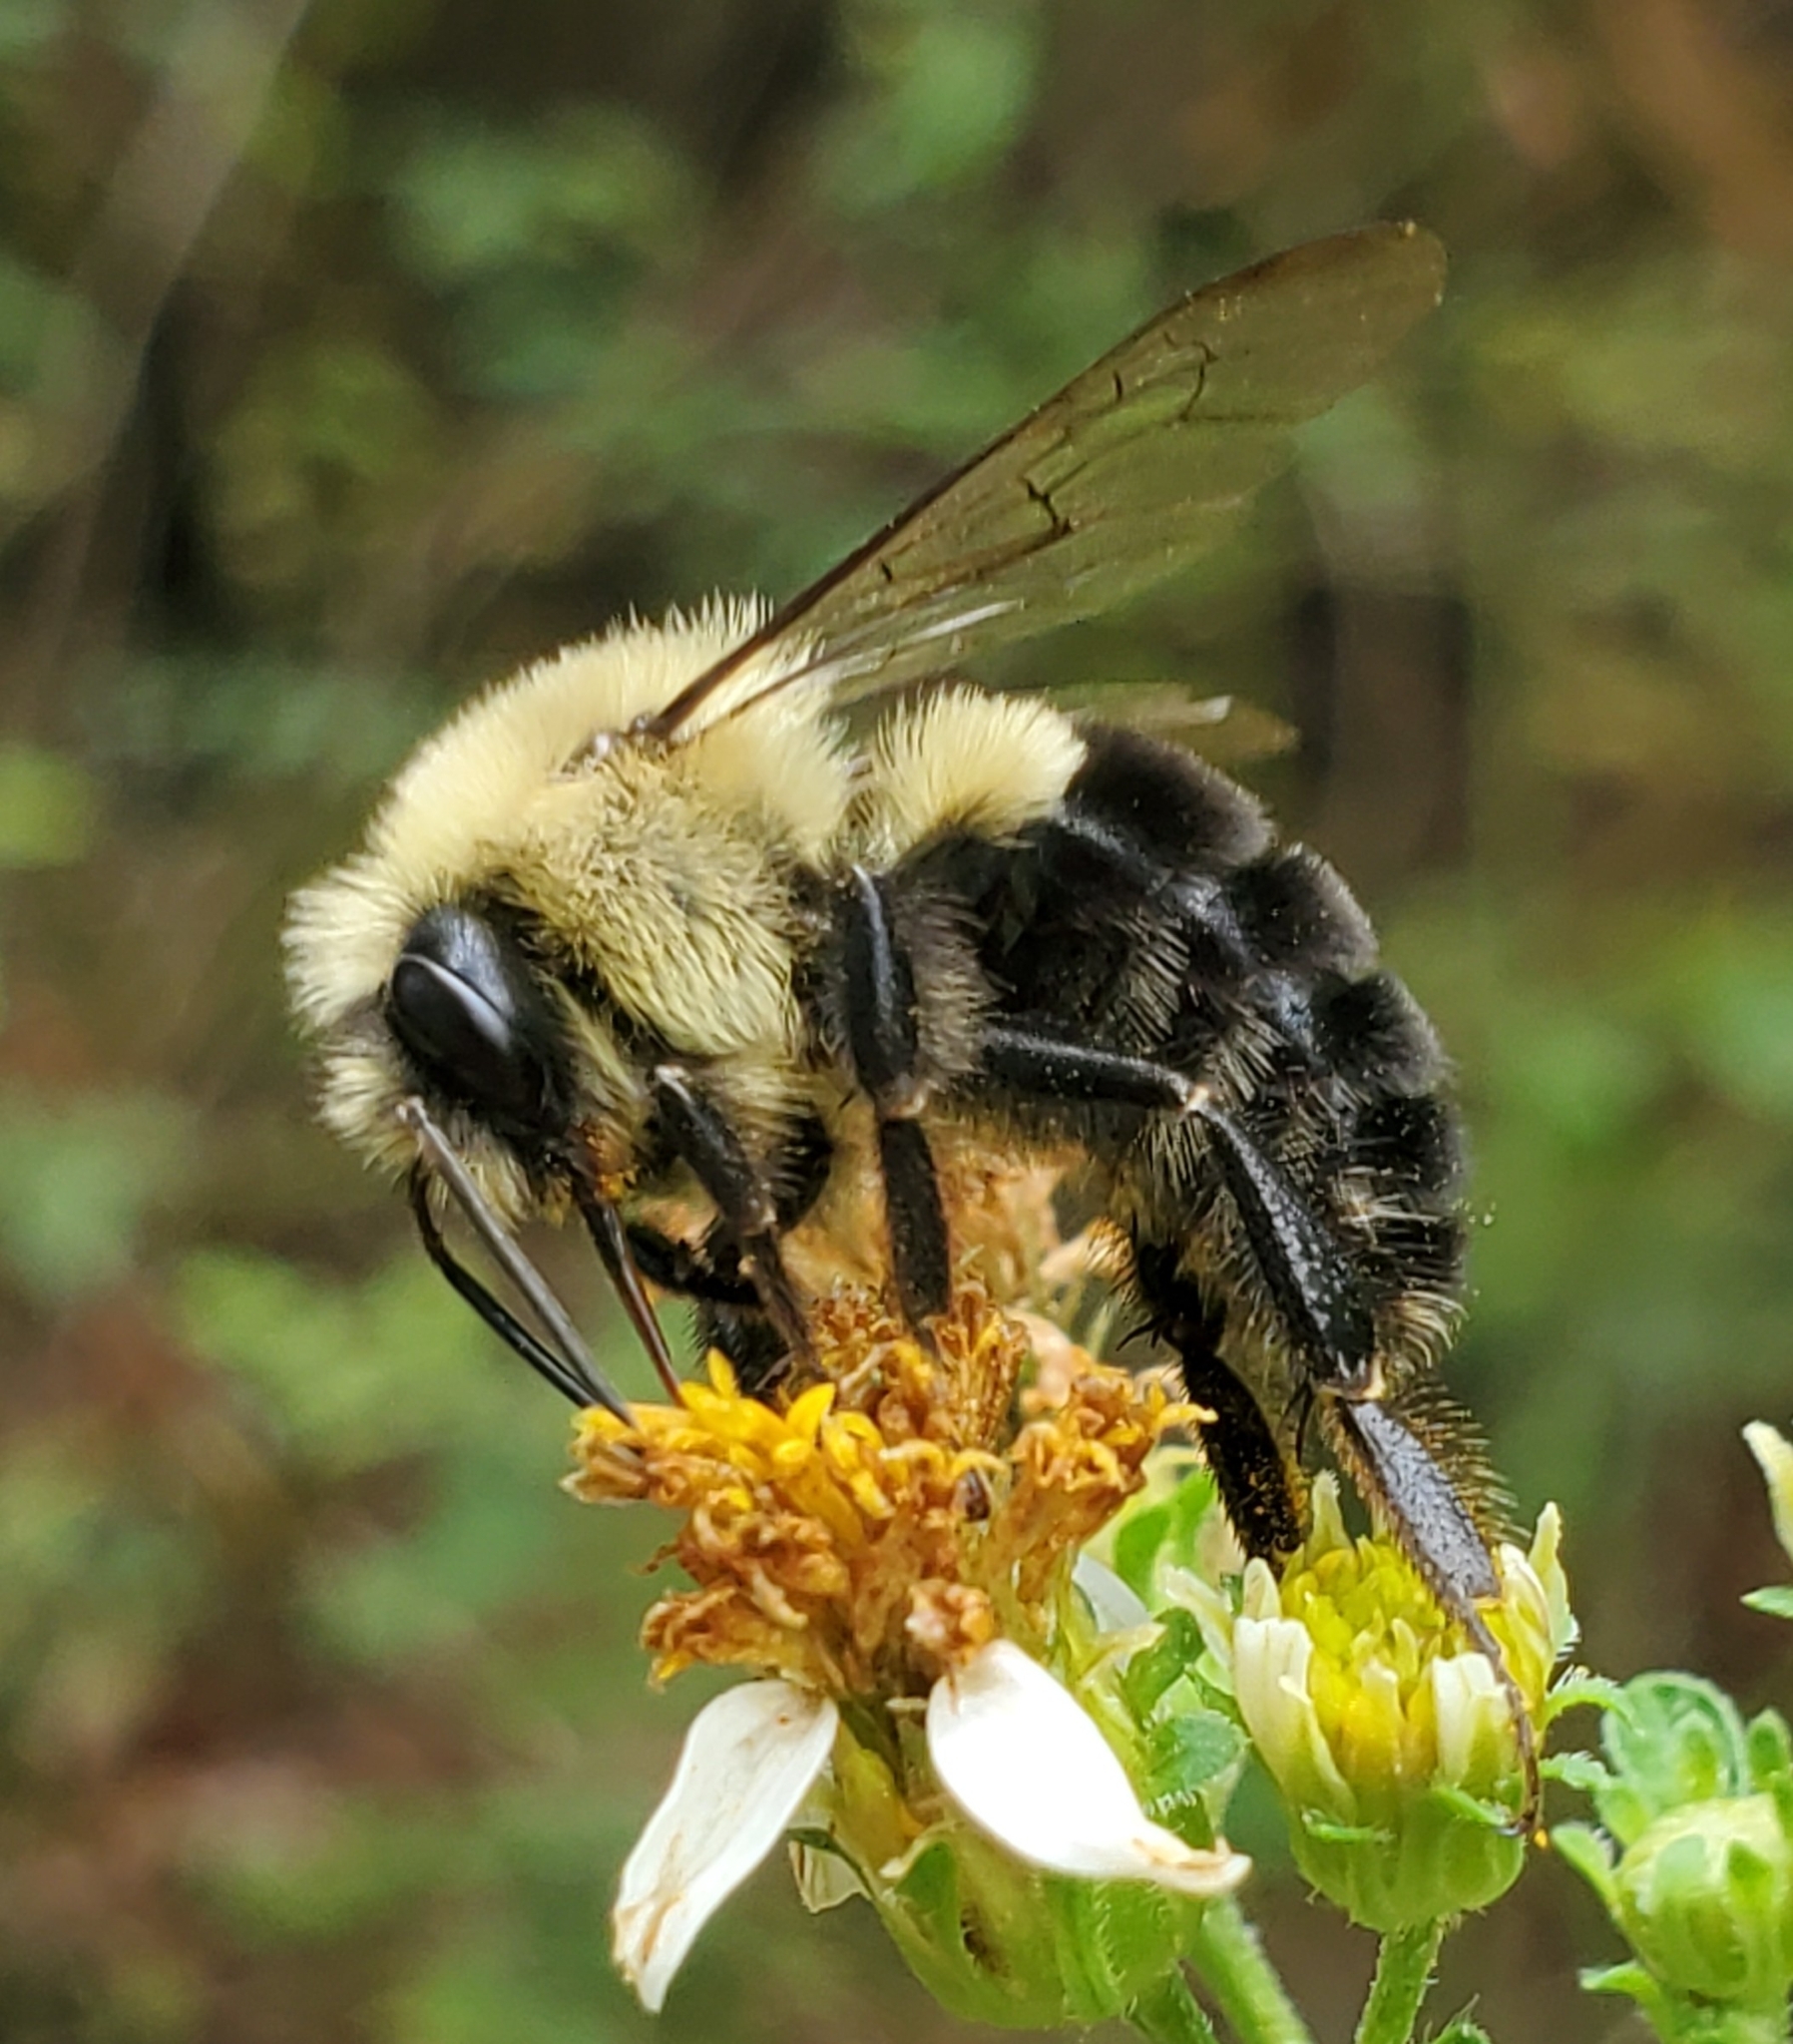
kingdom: Animalia
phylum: Arthropoda
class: Insecta
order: Hymenoptera
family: Apidae
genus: Bombus
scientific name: Bombus impatiens
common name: Common eastern bumble bee
